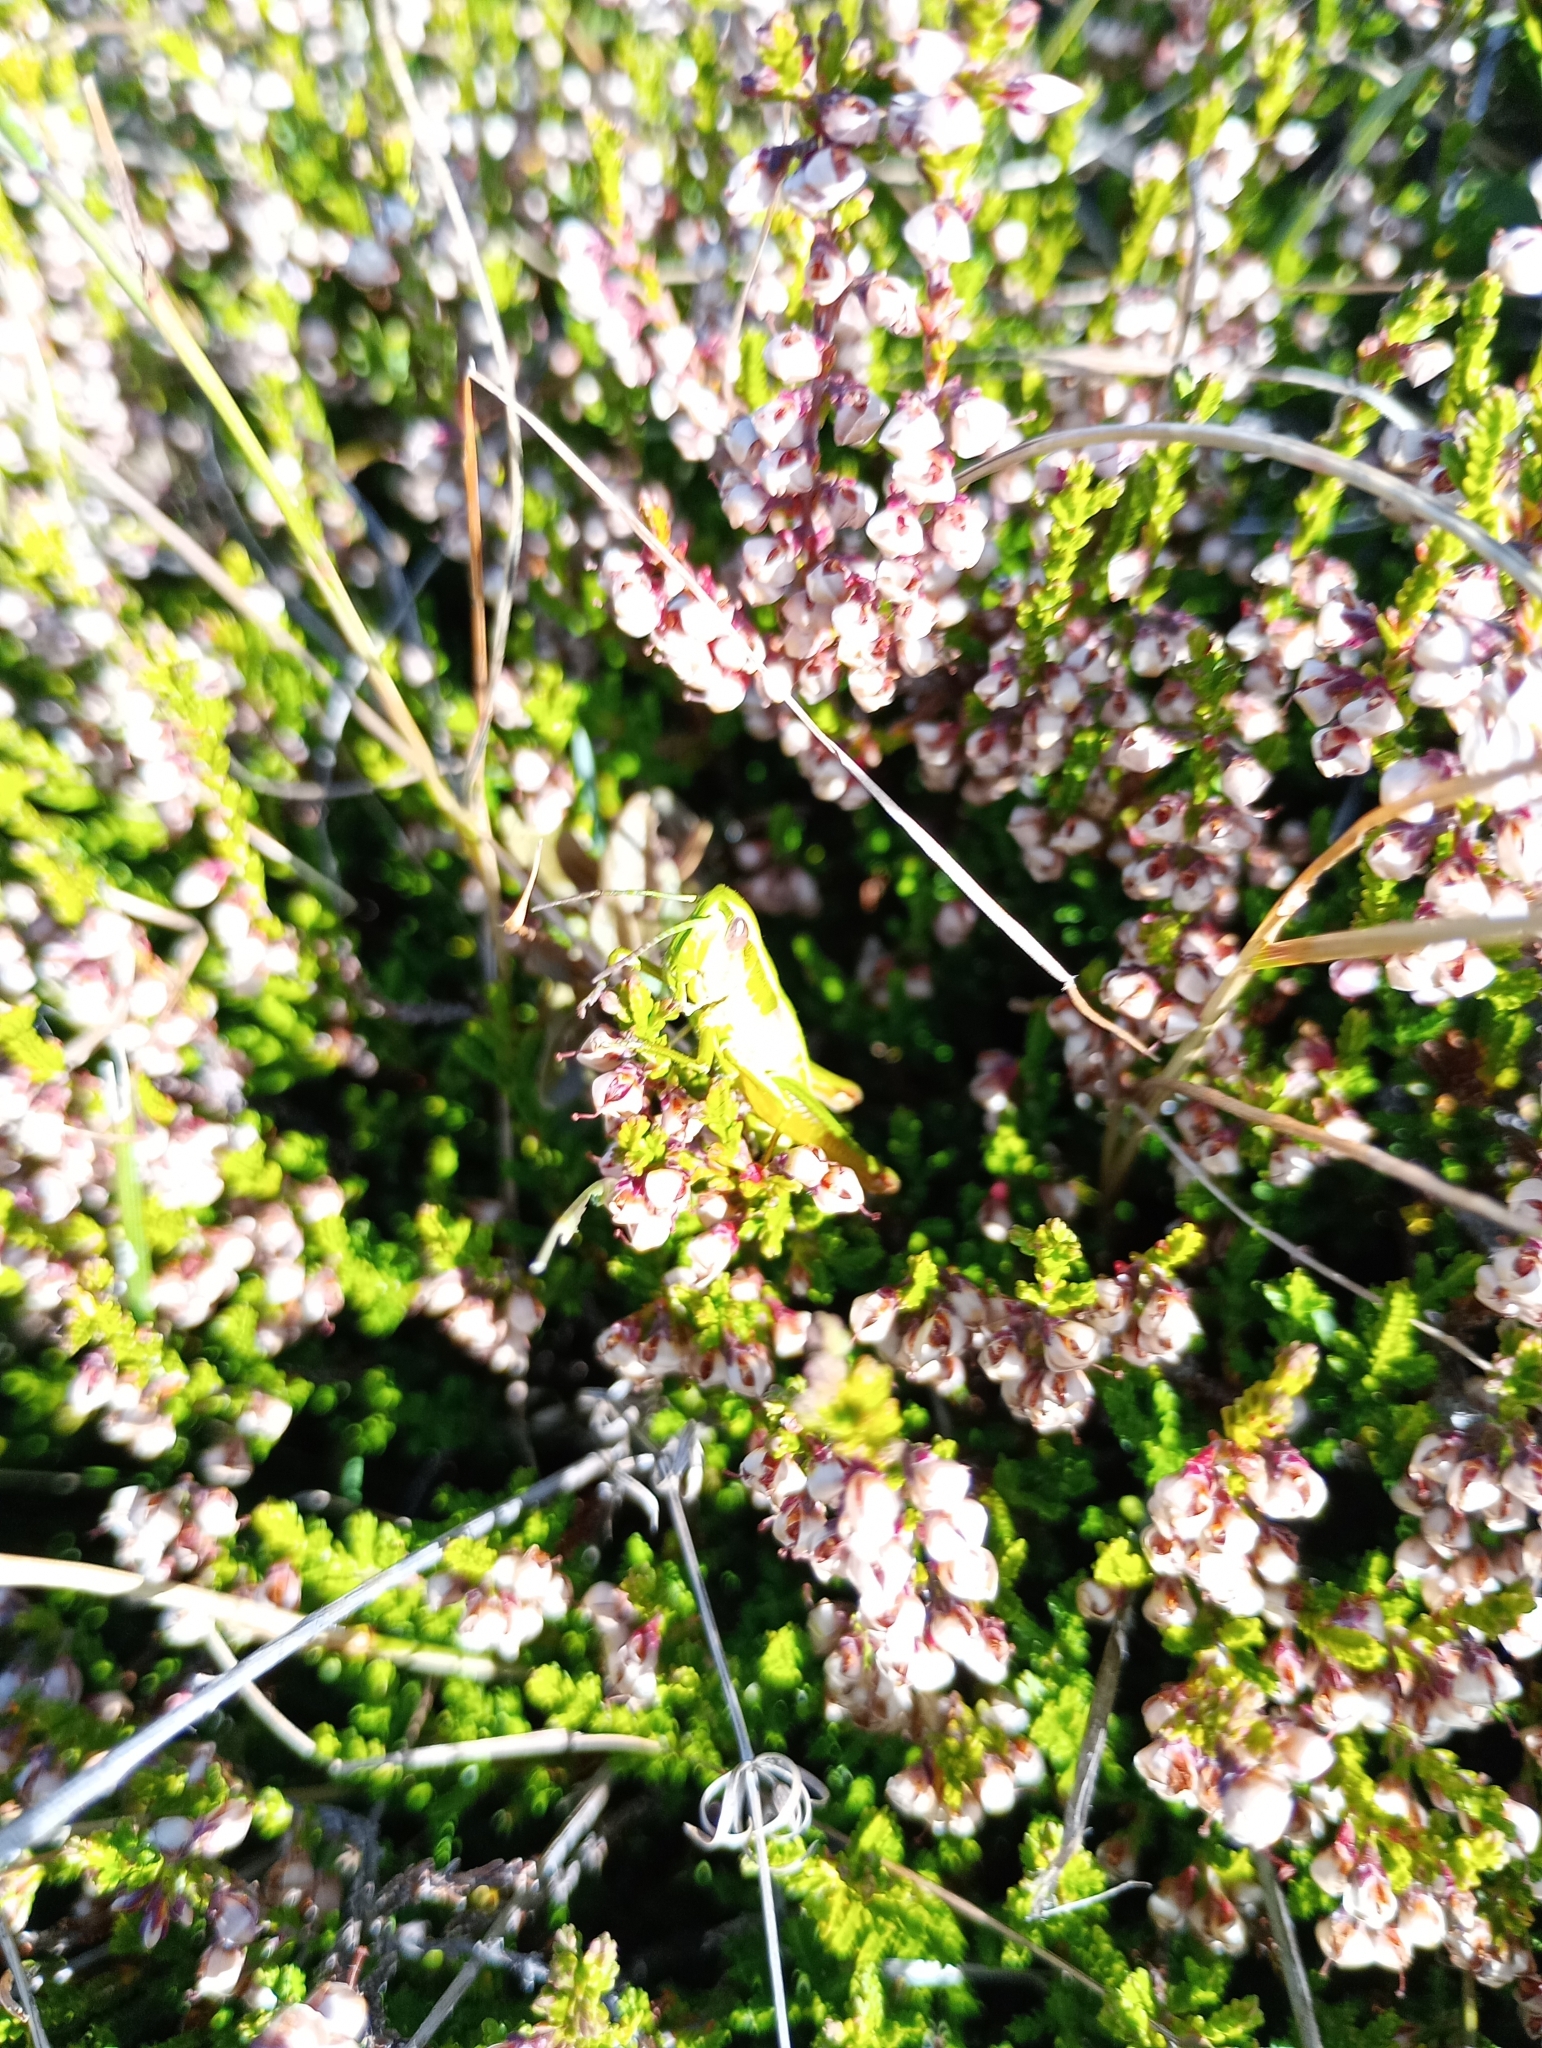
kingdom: Animalia
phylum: Arthropoda
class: Insecta
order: Orthoptera
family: Acrididae
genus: Euthystira
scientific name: Euthystira brachyptera
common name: Small gold grasshopper
